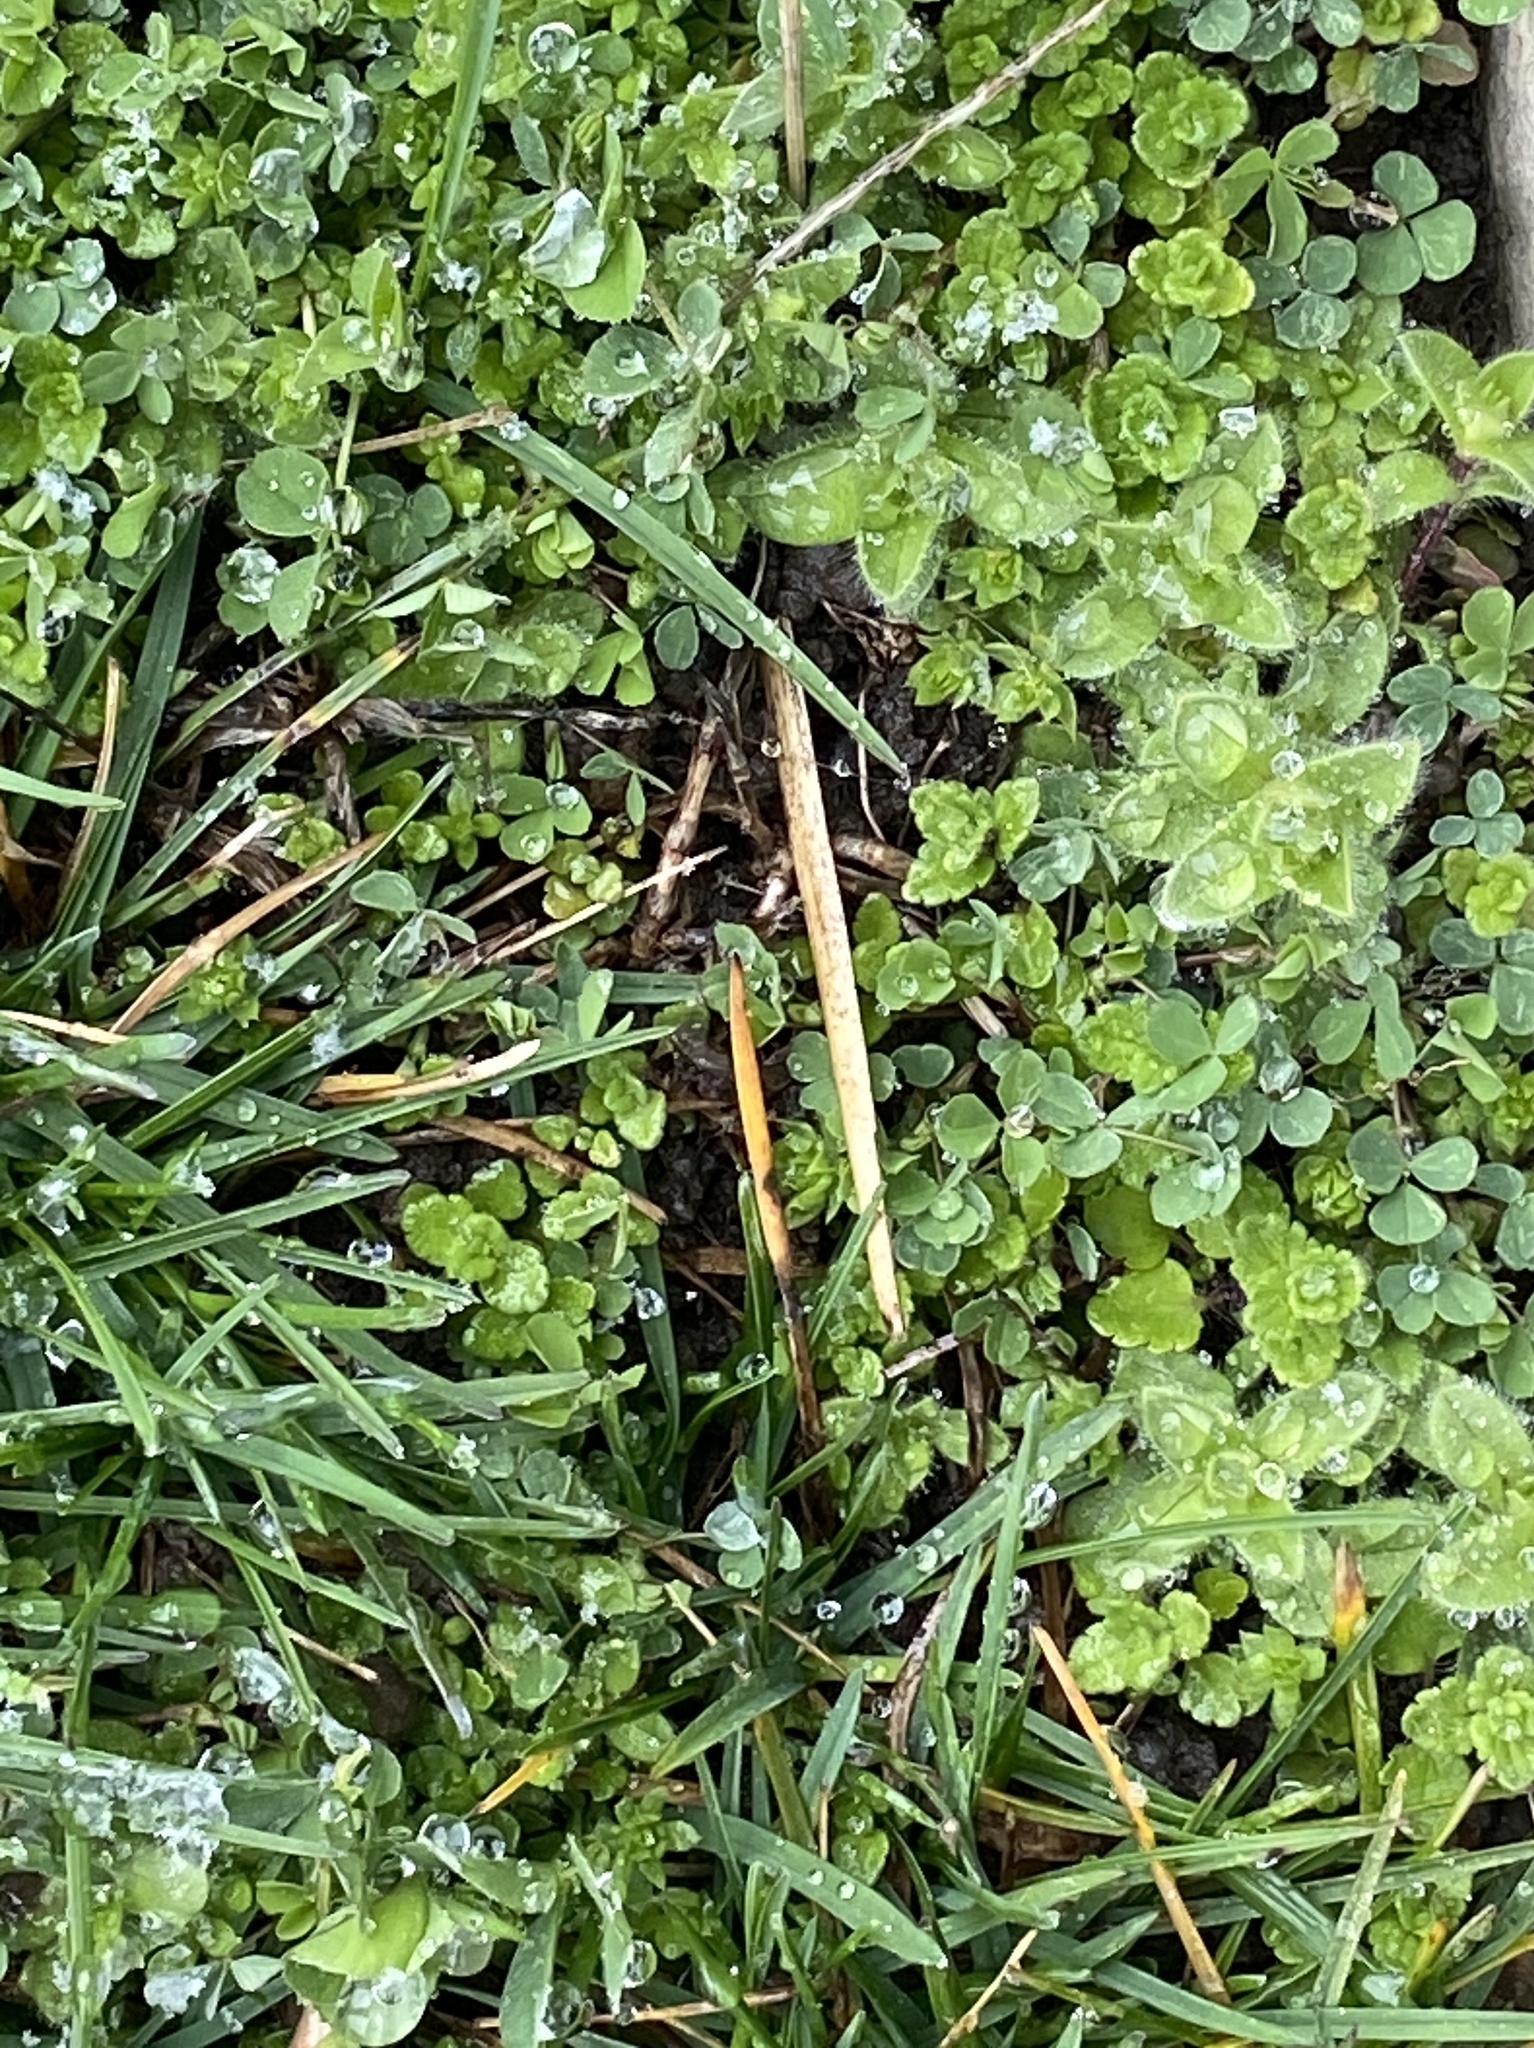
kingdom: Plantae
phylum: Tracheophyta
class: Magnoliopsida
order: Lamiales
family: Plantaginaceae
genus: Veronica
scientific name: Veronica arvensis
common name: Corn speedwell
